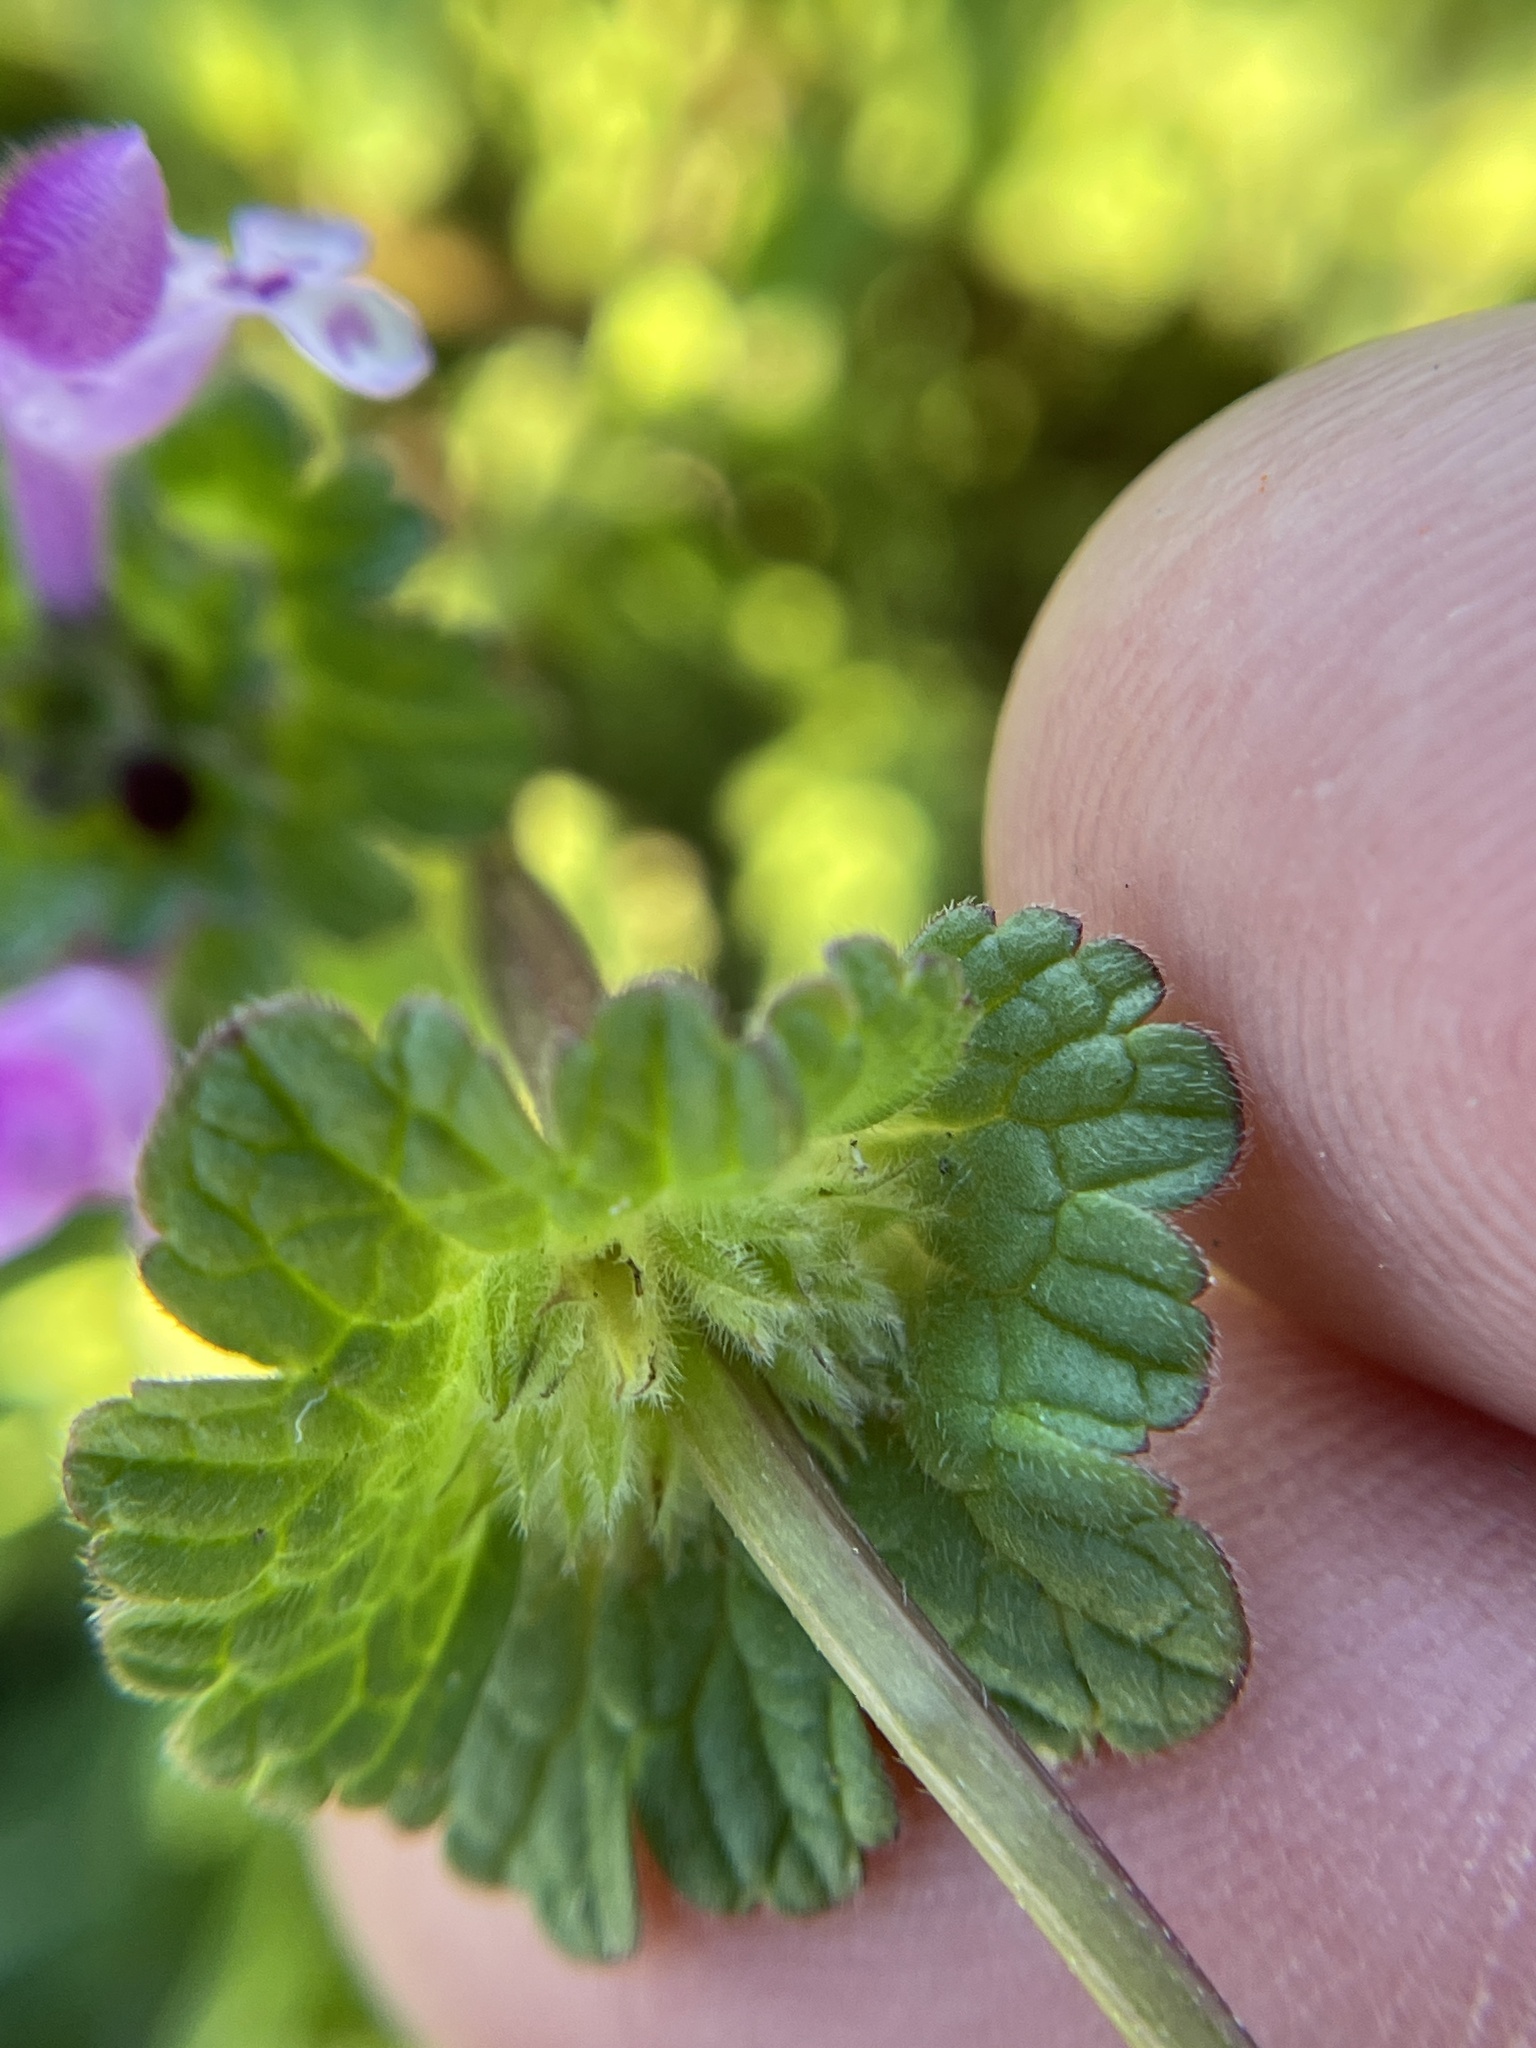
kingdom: Plantae
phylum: Tracheophyta
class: Magnoliopsida
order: Lamiales
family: Lamiaceae
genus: Lamium
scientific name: Lamium amplexicaule
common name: Henbit dead-nettle
